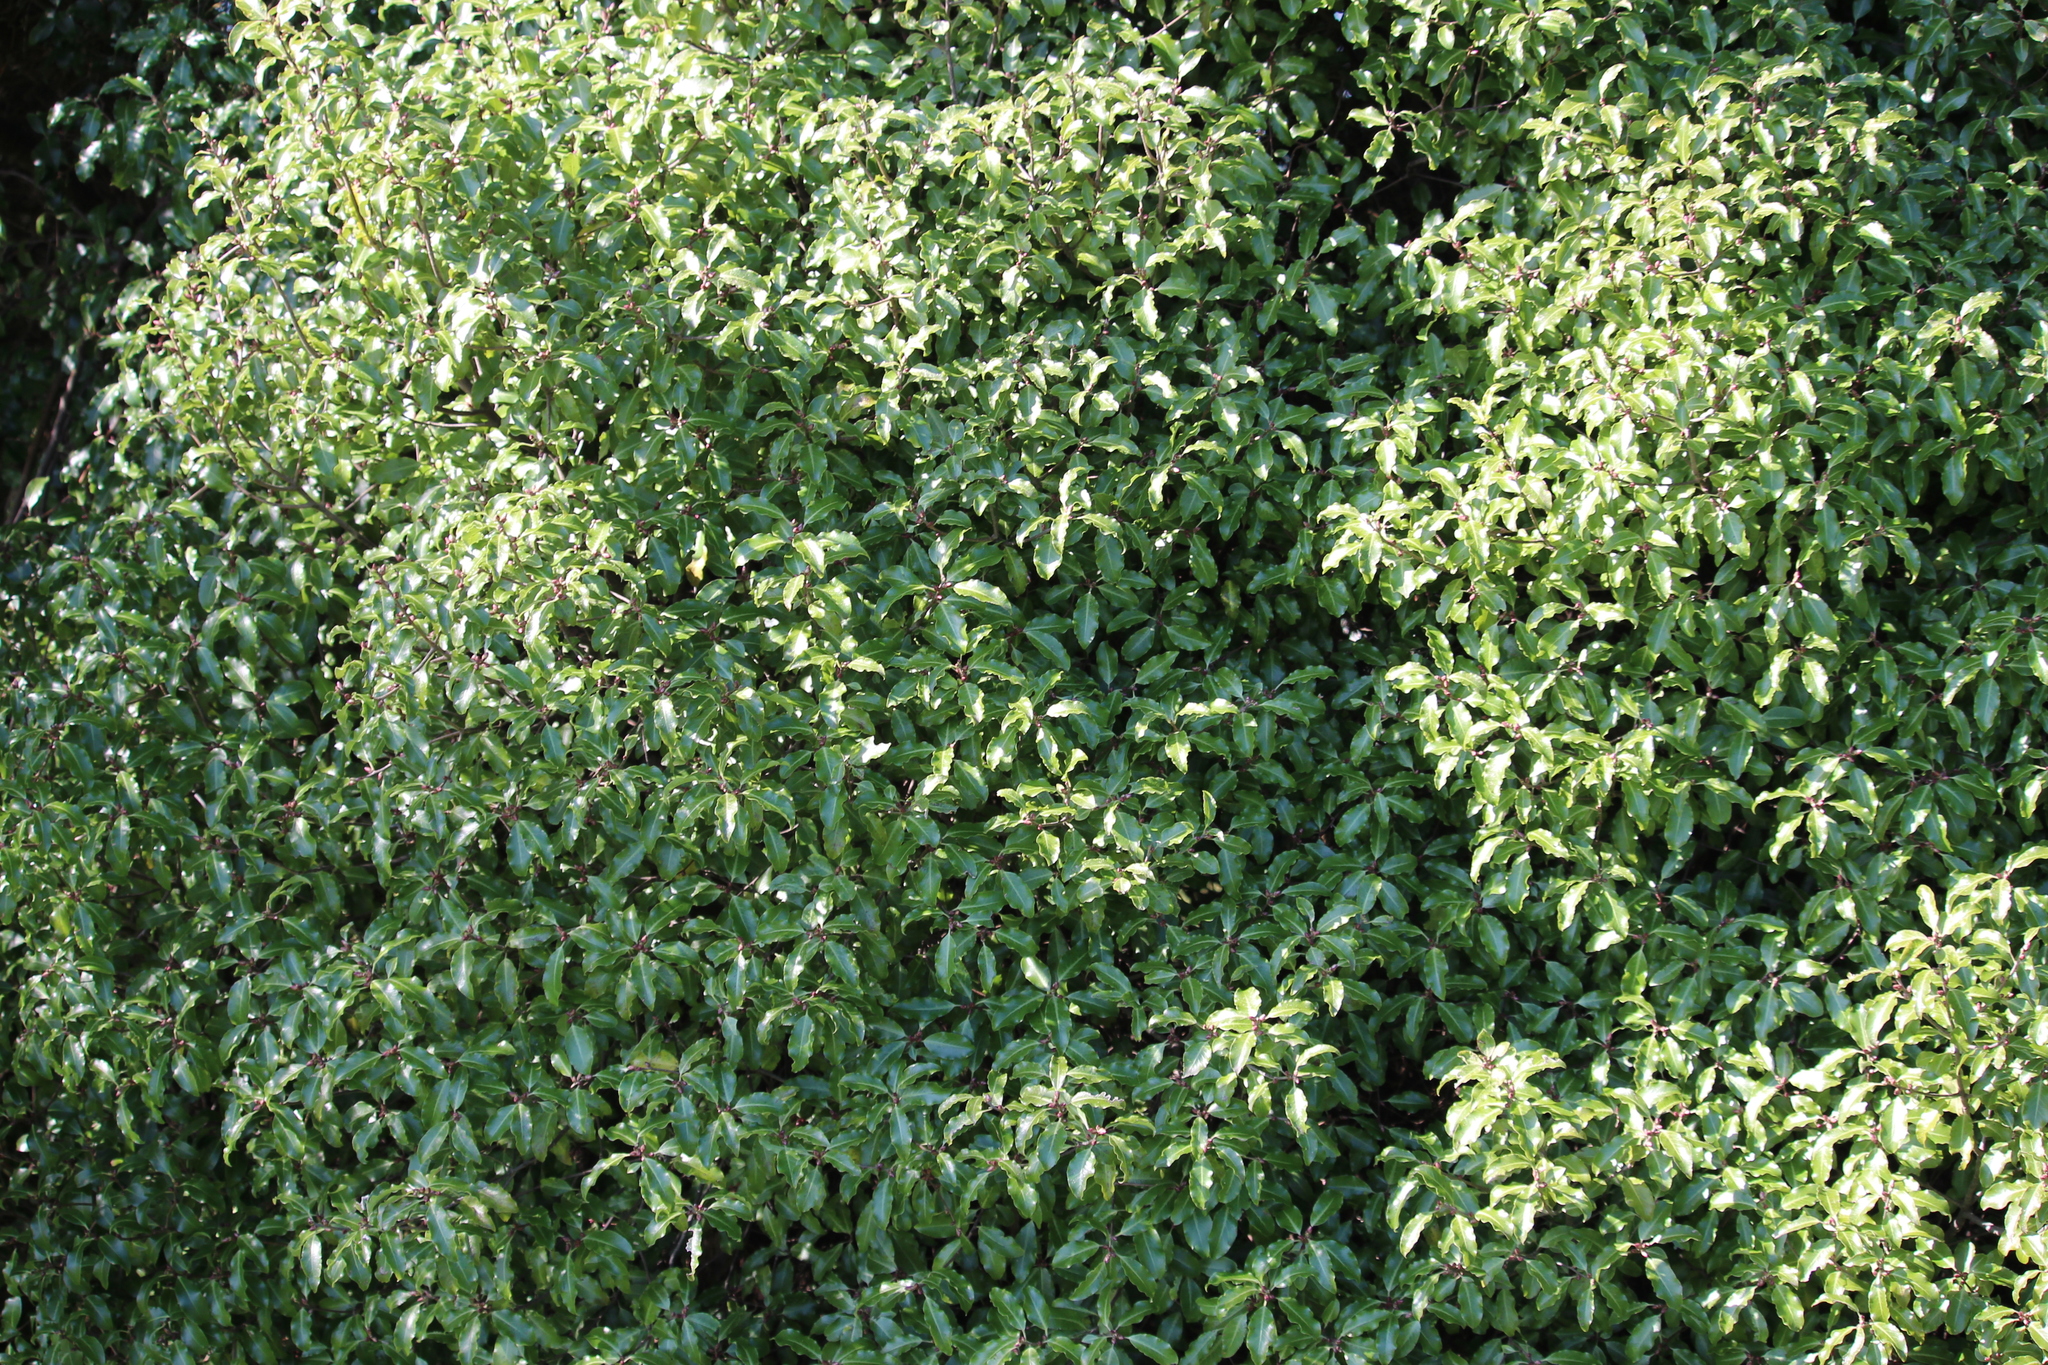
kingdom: Plantae
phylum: Tracheophyta
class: Magnoliopsida
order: Apiales
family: Pittosporaceae
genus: Pittosporum
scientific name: Pittosporum tenuifolium
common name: Kohuhu
